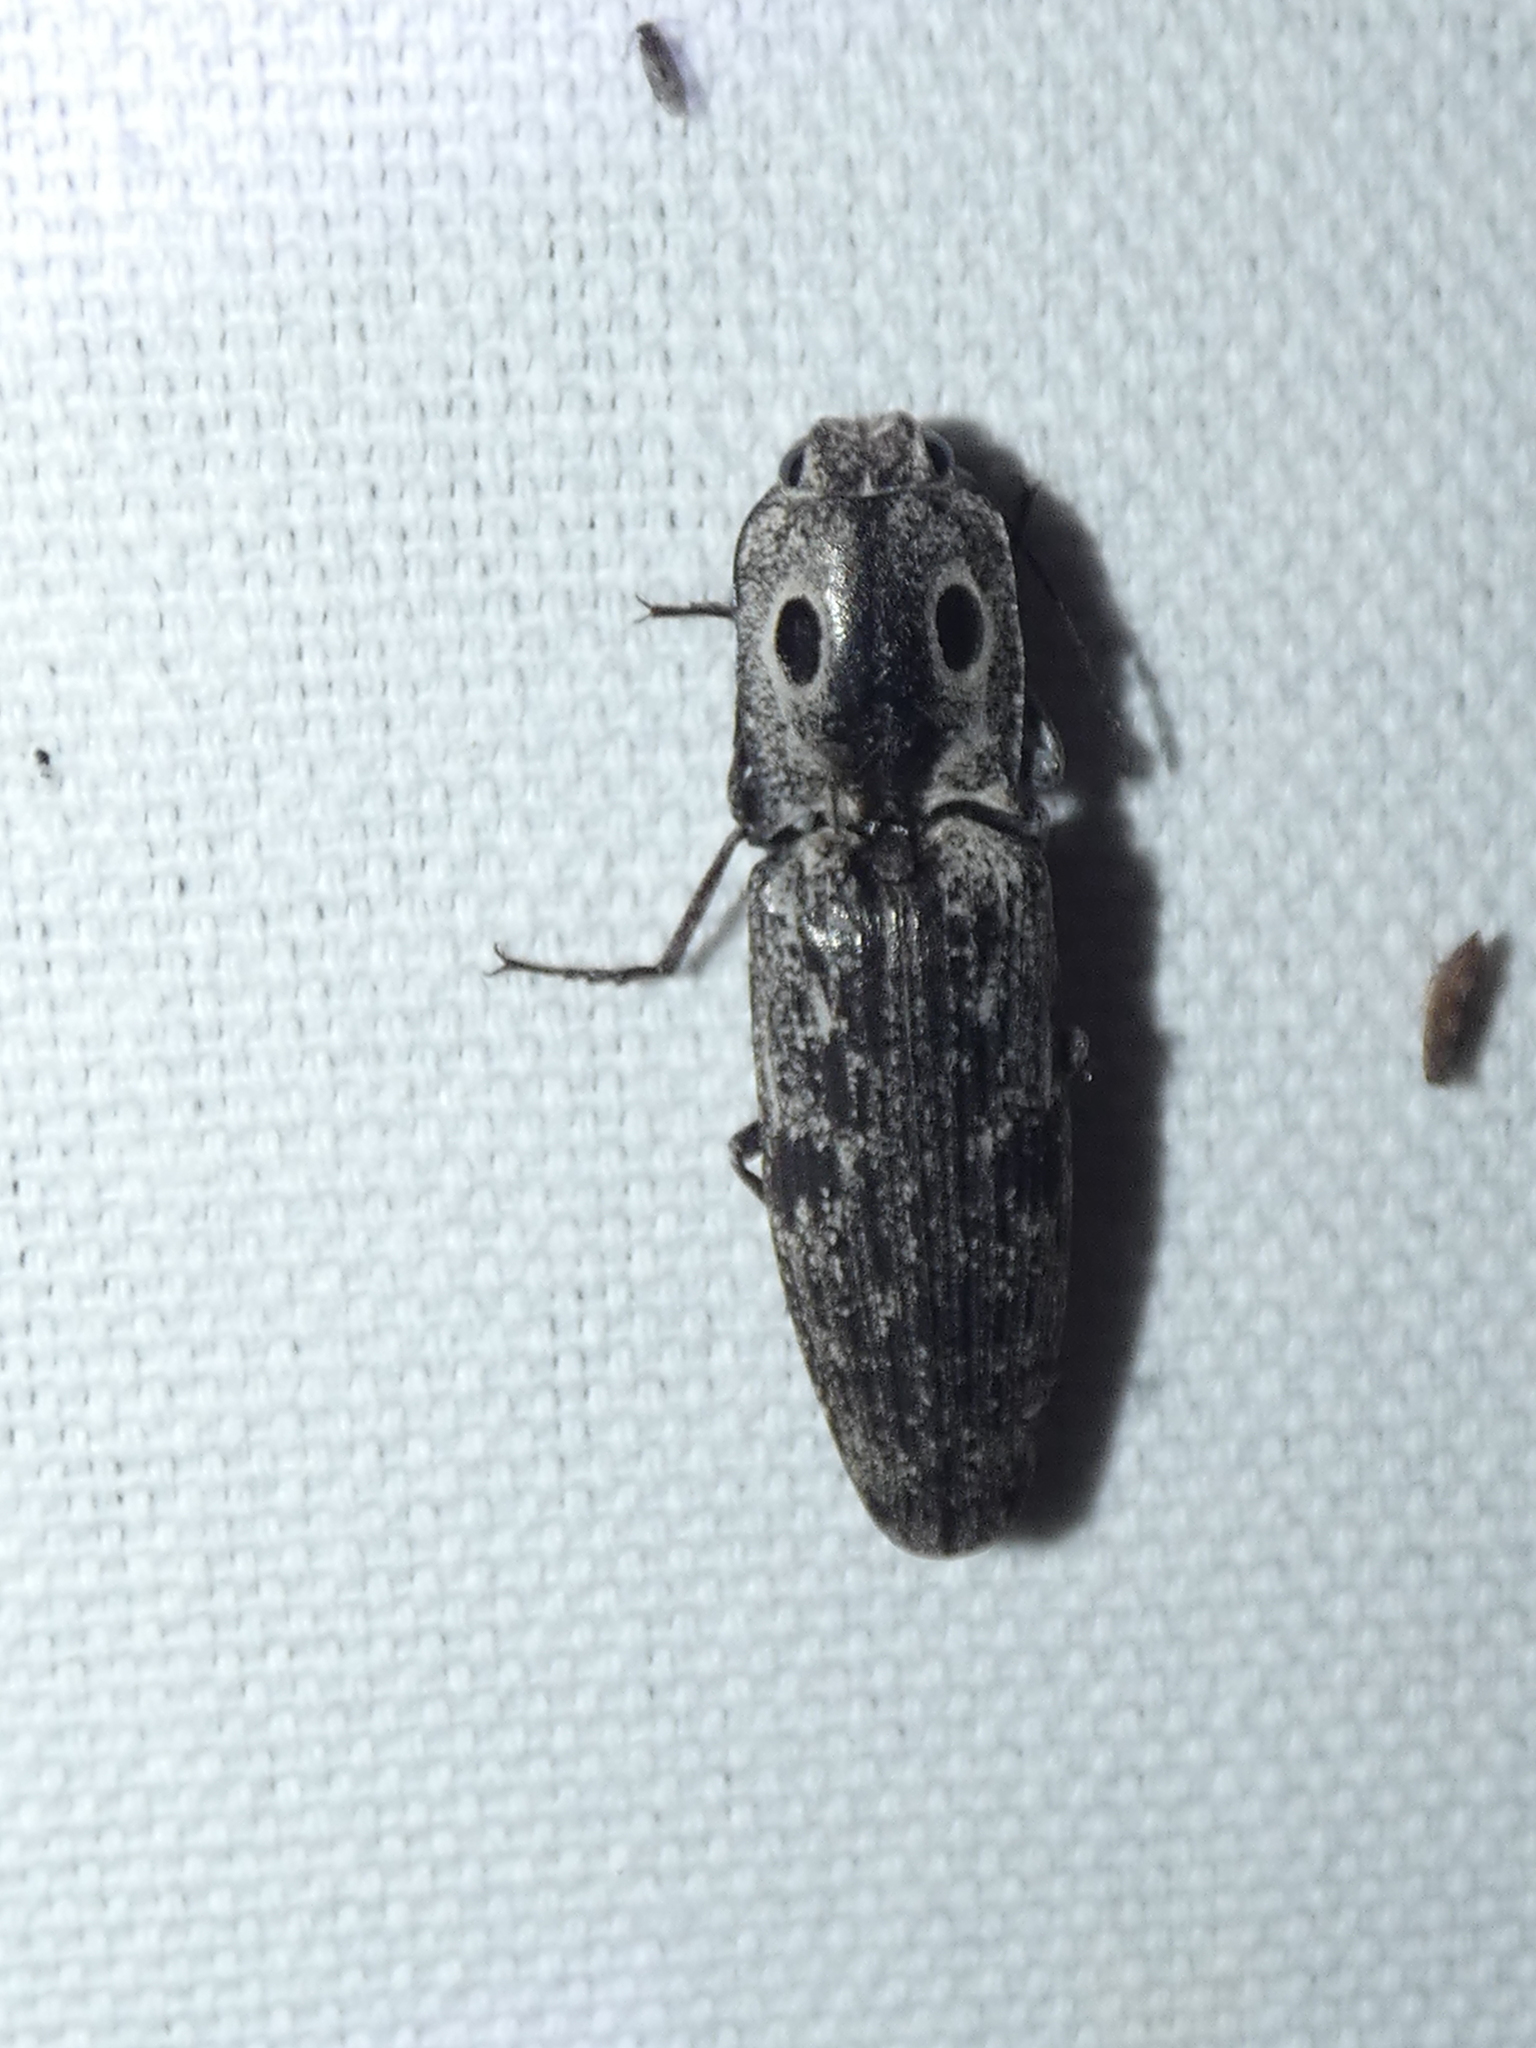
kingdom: Animalia
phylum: Arthropoda
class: Insecta
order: Coleoptera
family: Elateridae
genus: Alaus
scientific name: Alaus myops
